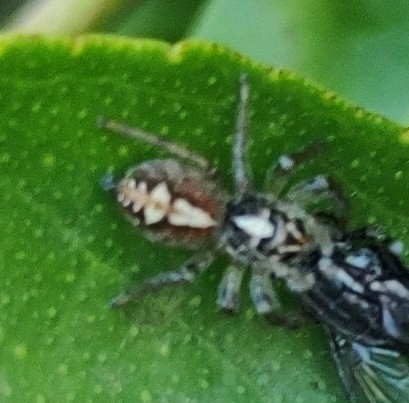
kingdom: Animalia
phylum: Arthropoda
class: Arachnida
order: Araneae
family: Salticidae
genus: Frigga
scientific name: Frigga quintensis
